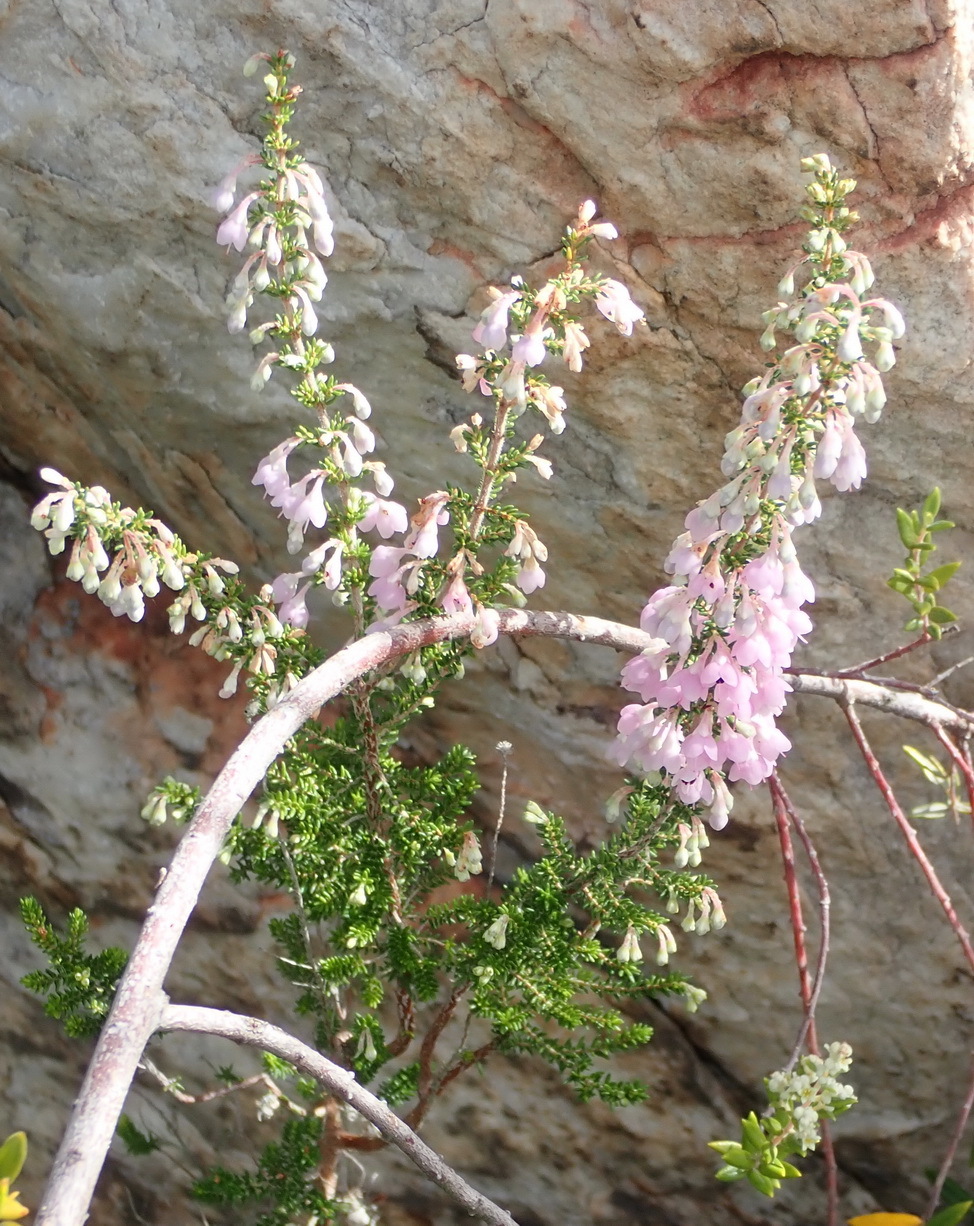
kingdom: Plantae
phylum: Tracheophyta
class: Magnoliopsida
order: Ericales
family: Ericaceae
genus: Erica
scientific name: Erica melanthera
